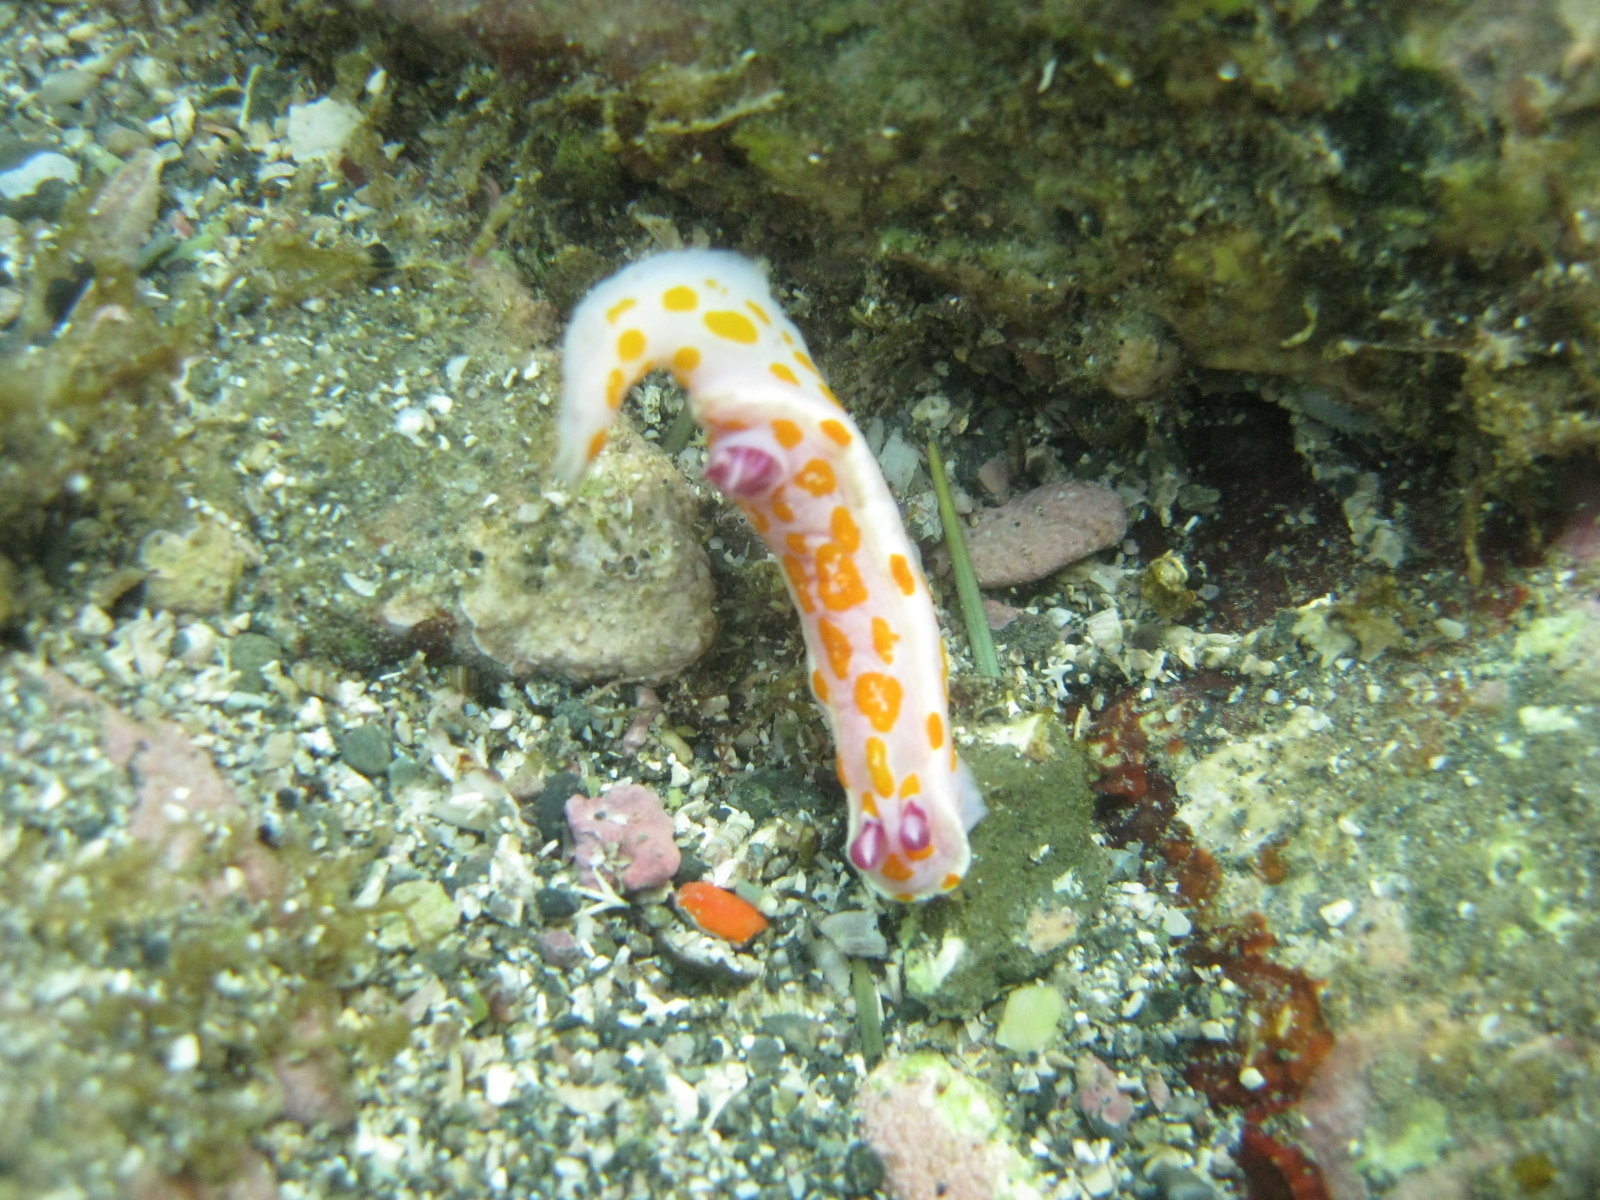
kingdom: Animalia
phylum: Mollusca
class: Gastropoda
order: Nudibranchia
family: Chromodorididae
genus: Ceratosoma
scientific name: Ceratosoma amoenum
